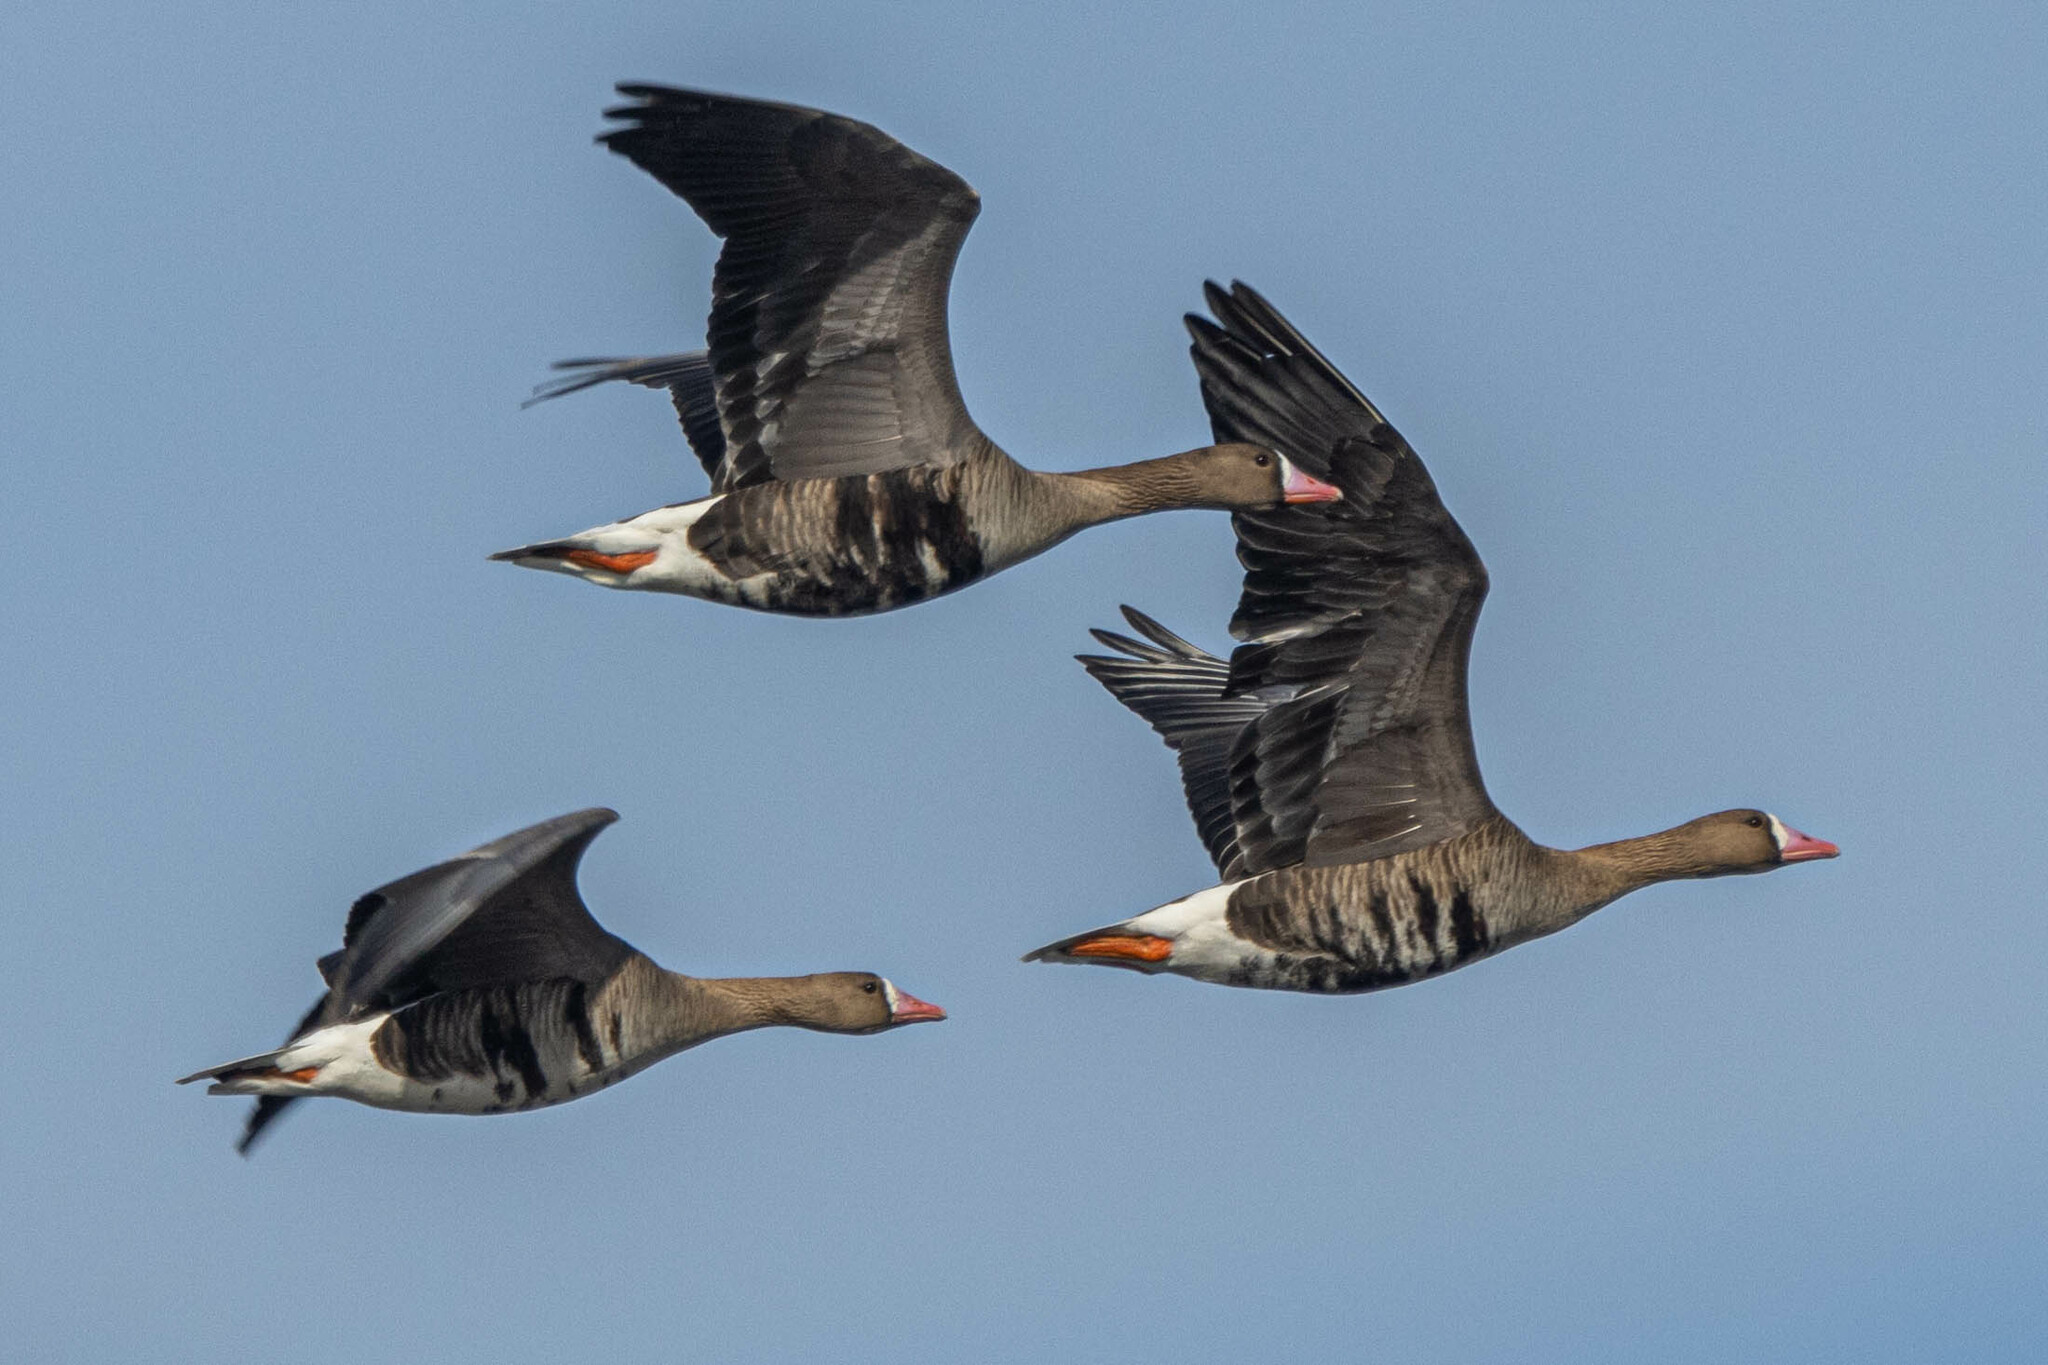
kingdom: Animalia
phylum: Chordata
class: Aves
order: Anseriformes
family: Anatidae
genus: Anser
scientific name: Anser albifrons
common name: Greater white-fronted goose
